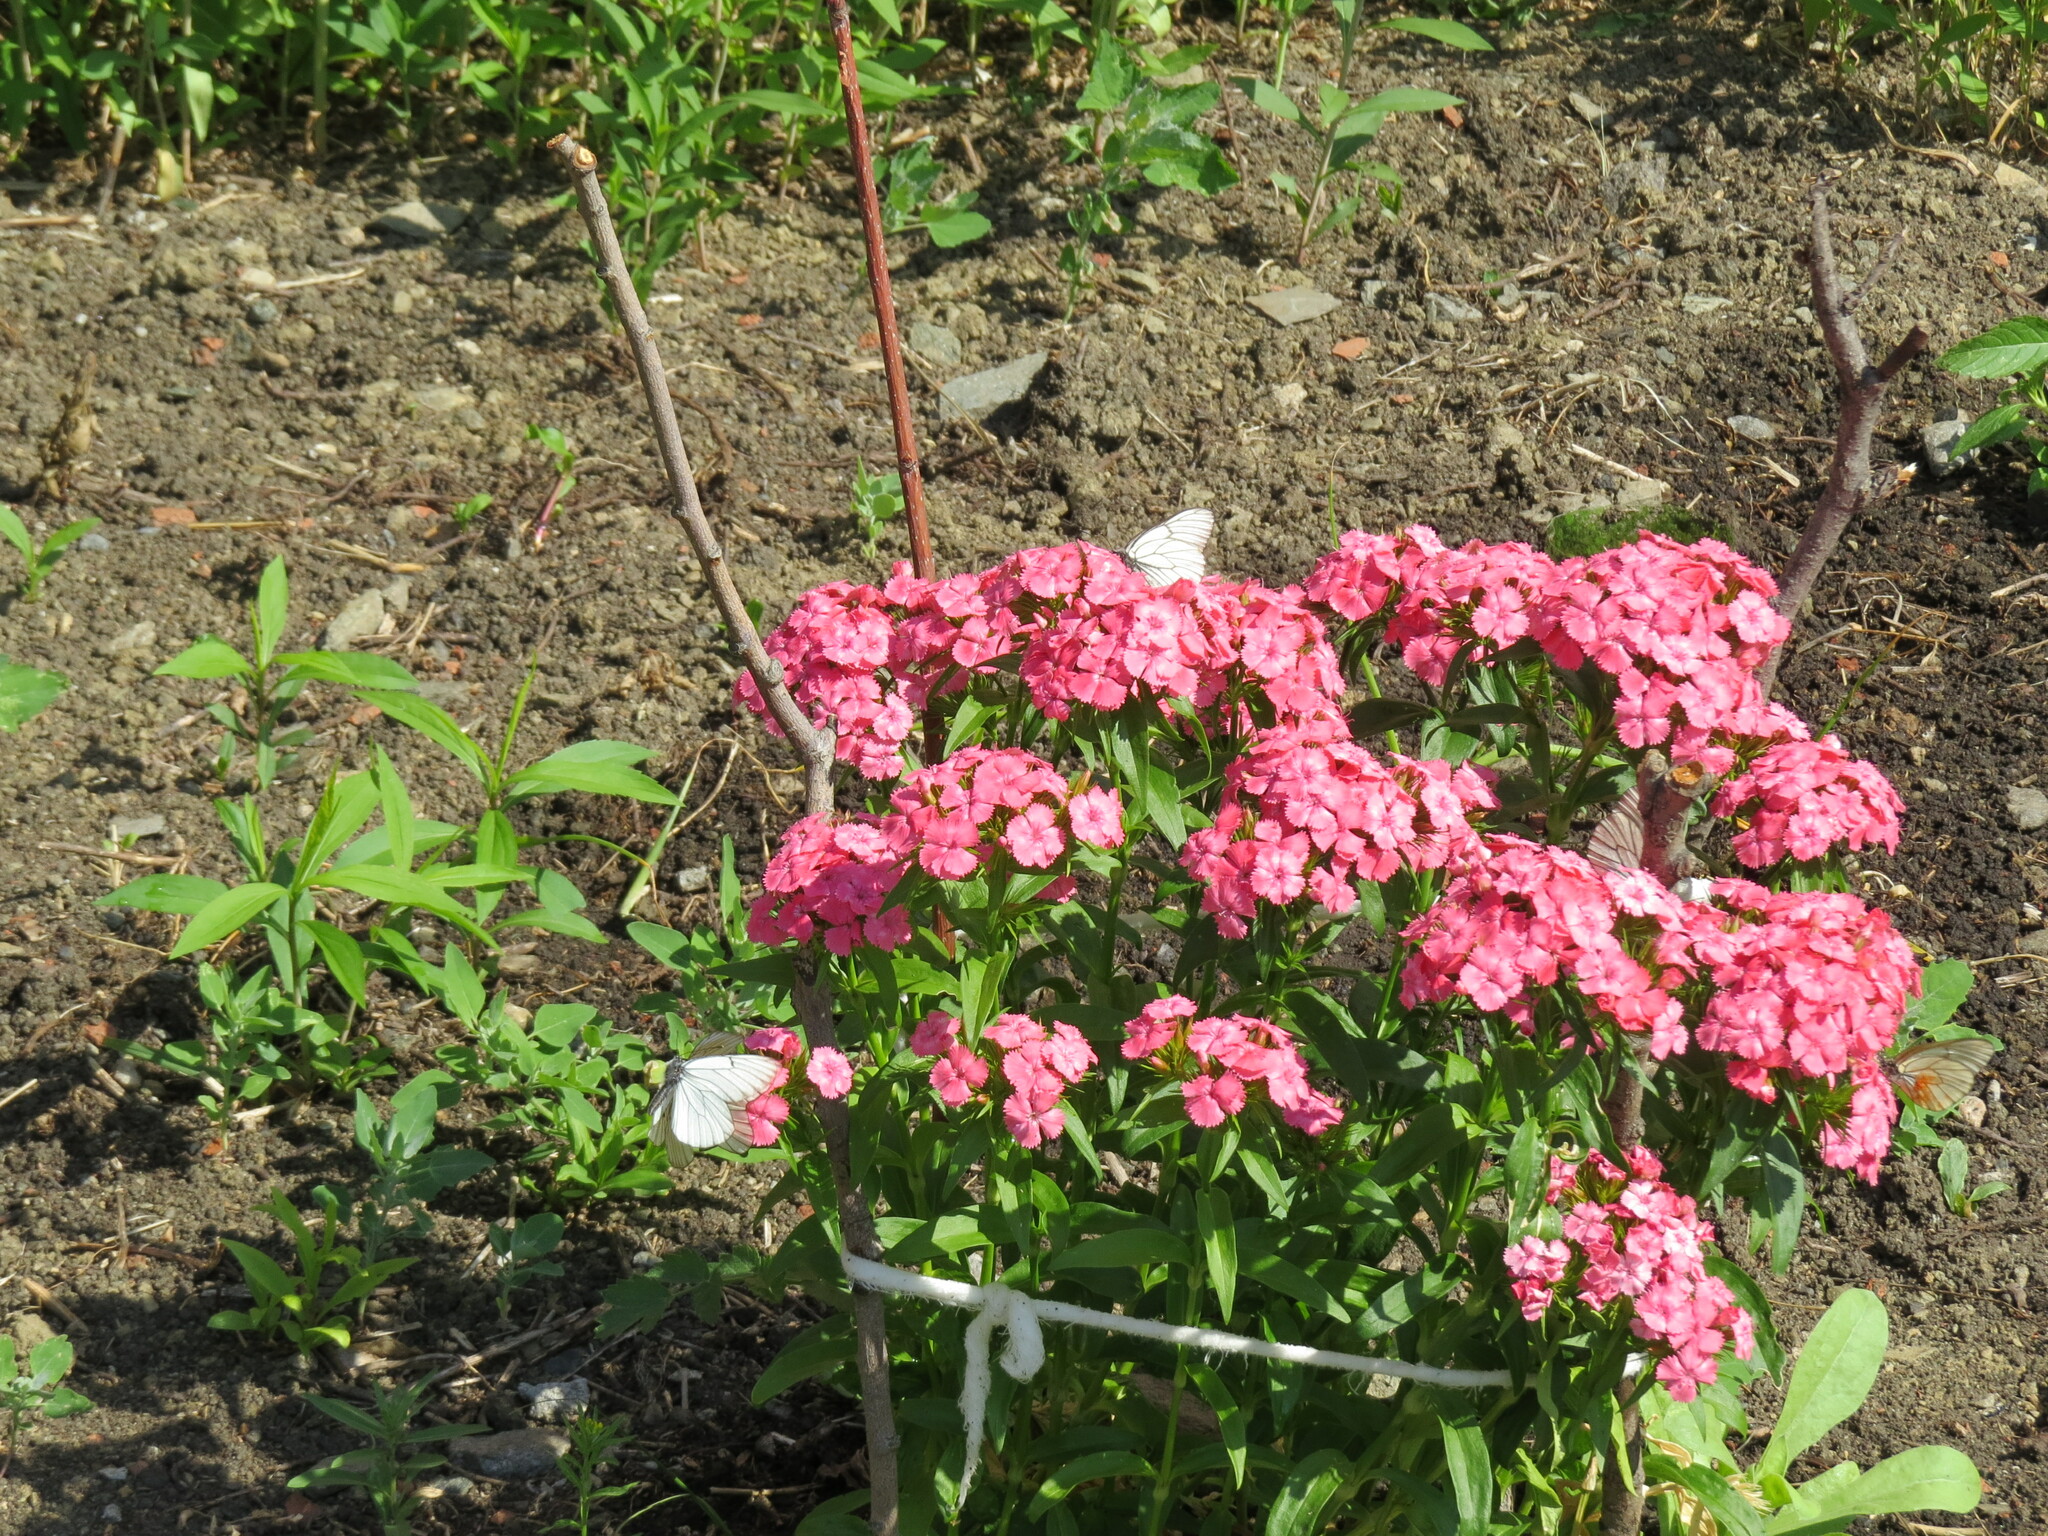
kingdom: Animalia
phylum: Arthropoda
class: Insecta
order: Lepidoptera
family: Pieridae
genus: Aporia
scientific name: Aporia crataegi
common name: Black-veined white
